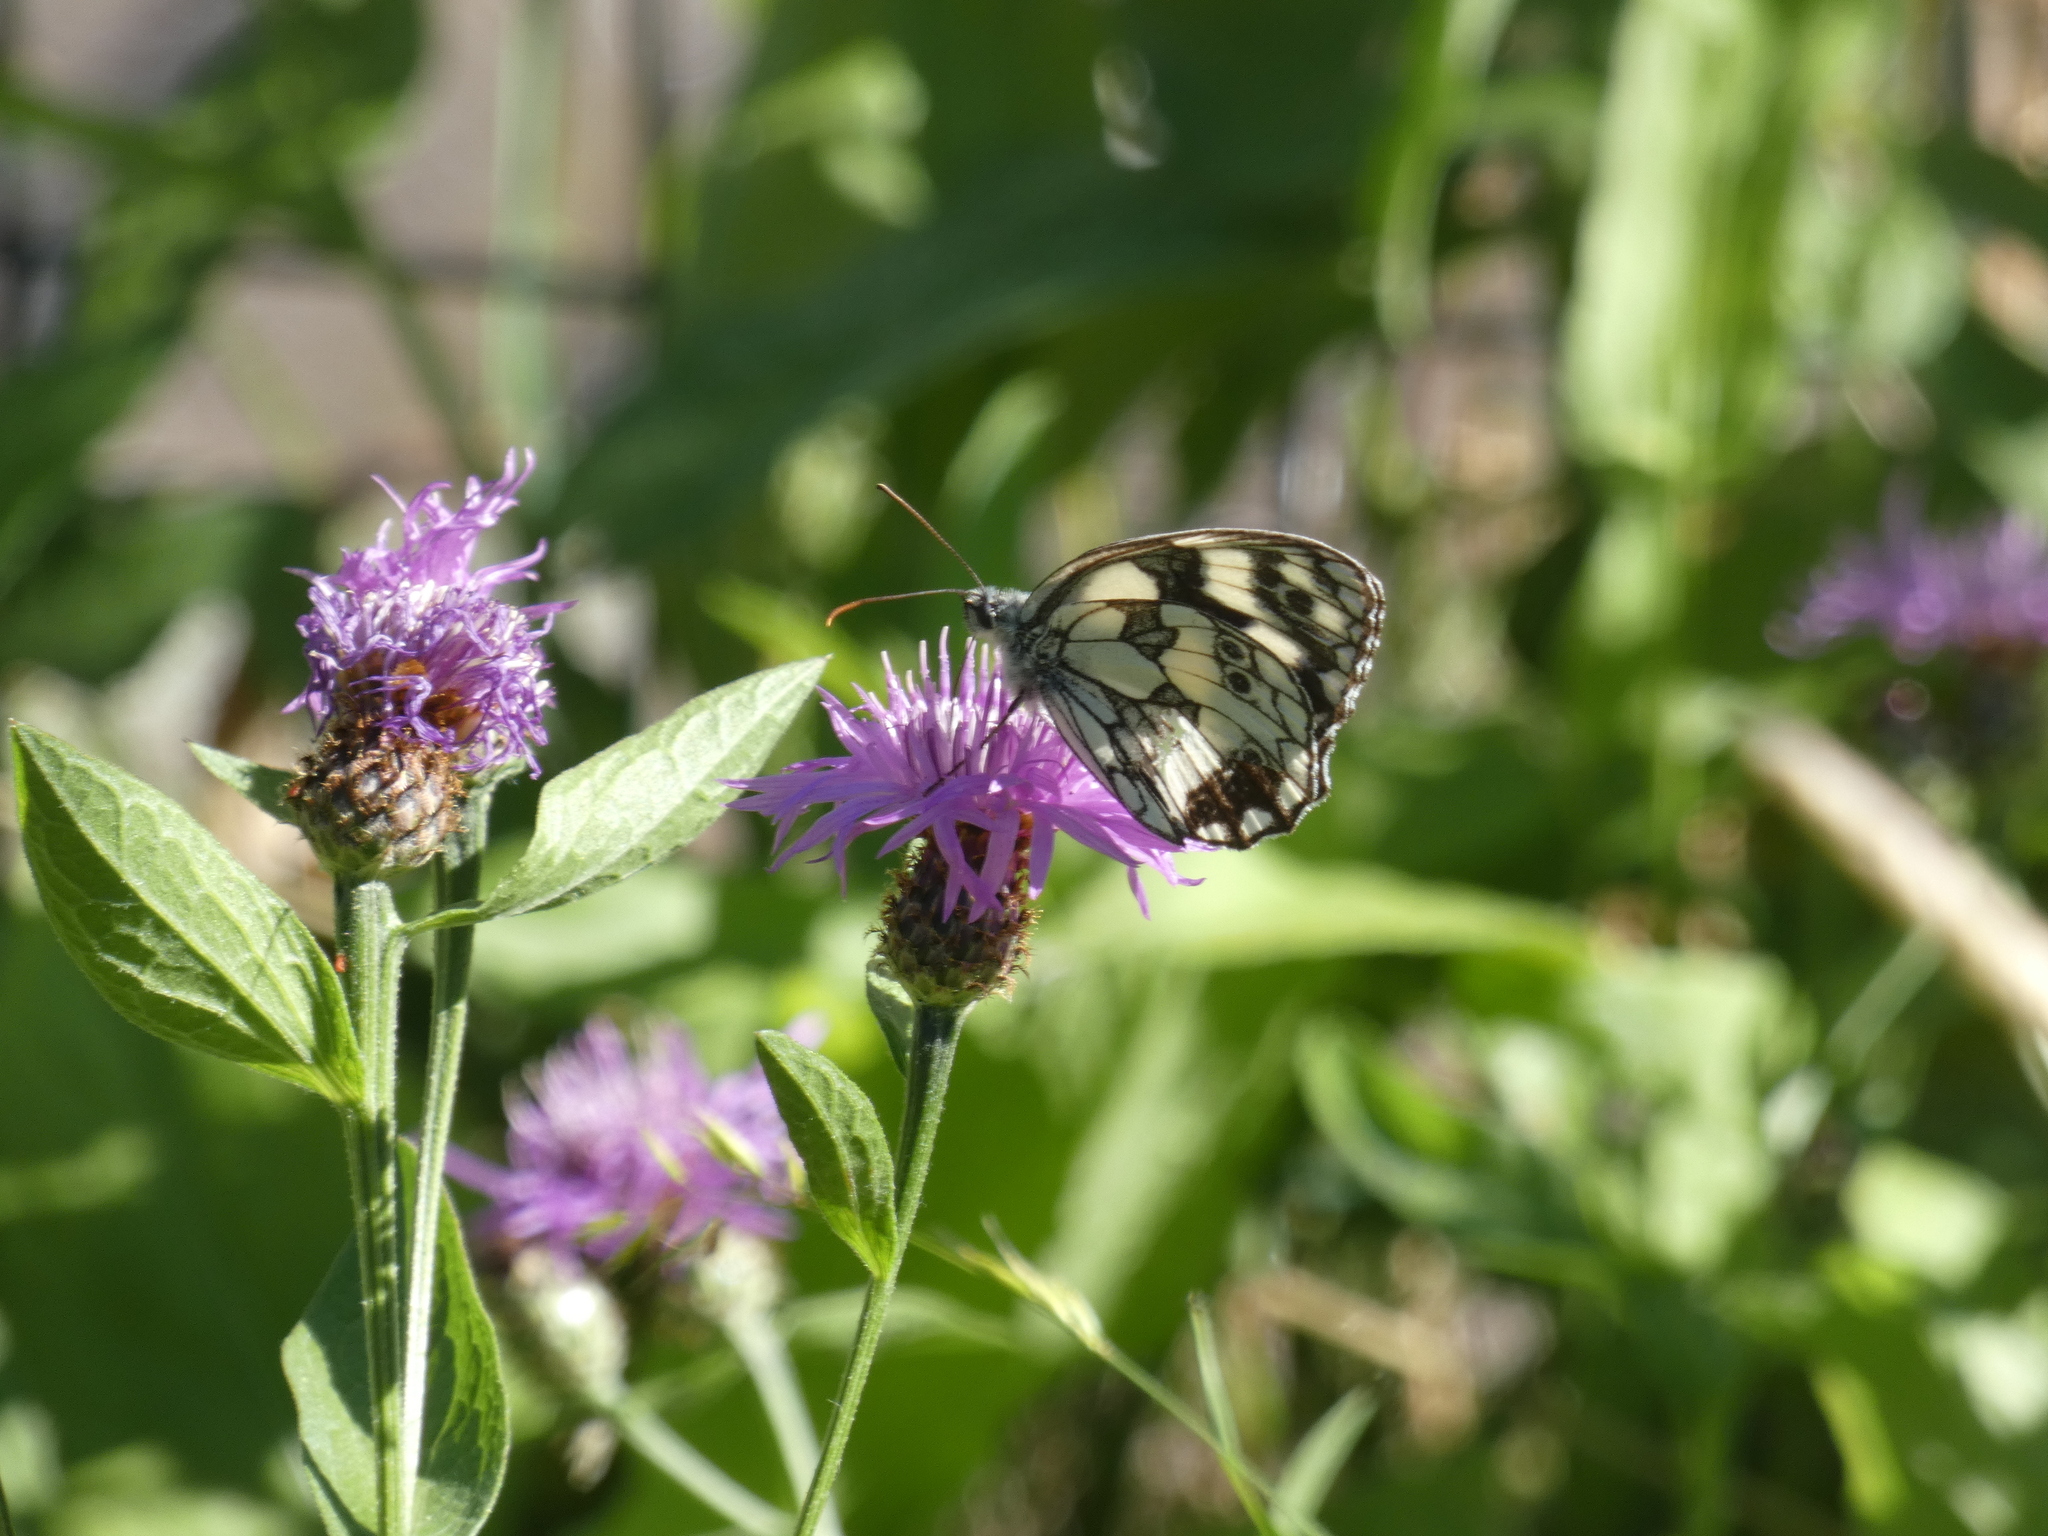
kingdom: Animalia
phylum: Arthropoda
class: Insecta
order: Lepidoptera
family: Nymphalidae
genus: Melanargia
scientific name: Melanargia galathea
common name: Marbled white
